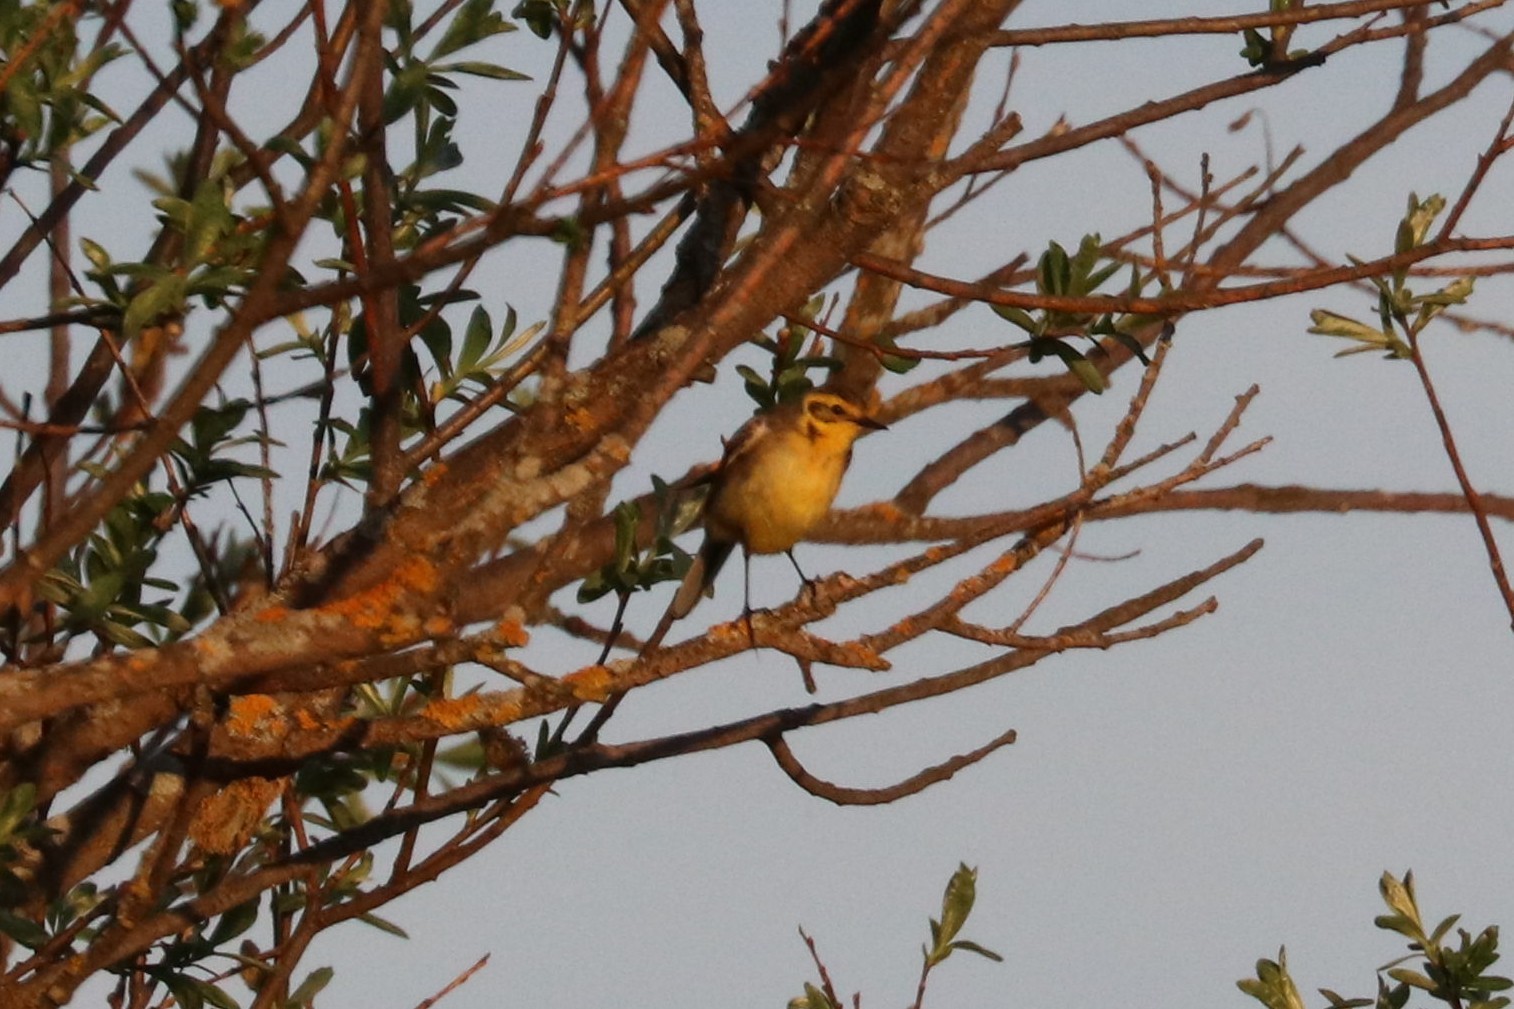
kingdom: Animalia
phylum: Chordata
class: Aves
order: Passeriformes
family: Motacillidae
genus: Motacilla
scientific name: Motacilla citreola
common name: Citrine wagtail
